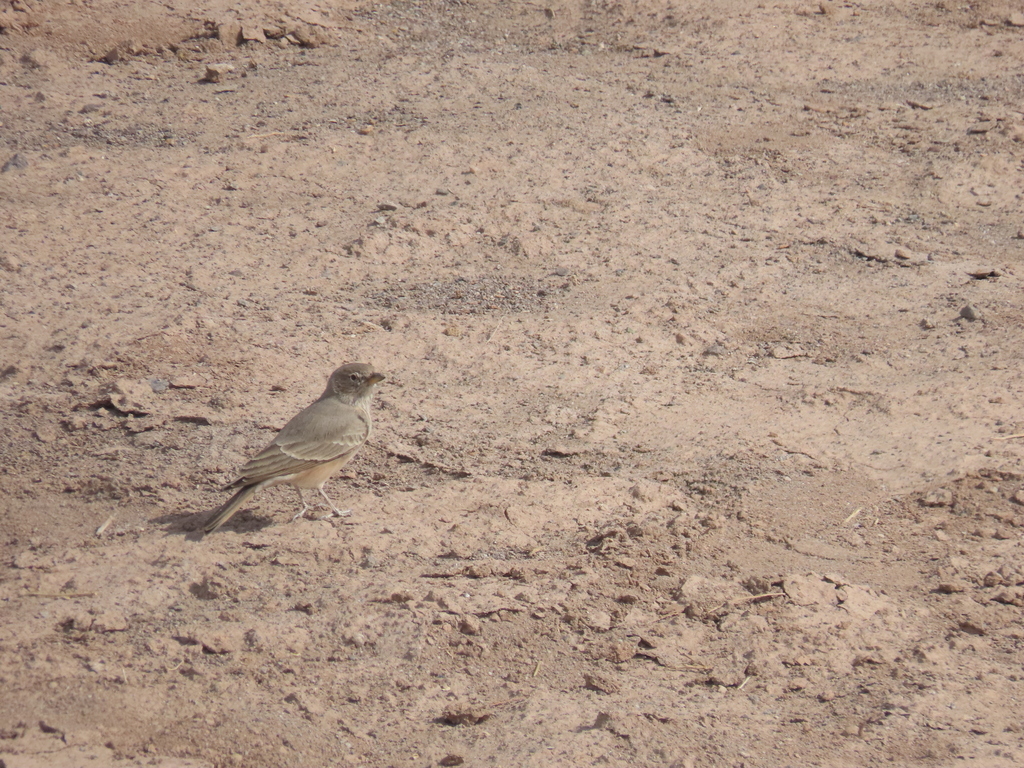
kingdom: Animalia
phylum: Chordata
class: Aves
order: Passeriformes
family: Alaudidae
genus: Ammomanes
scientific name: Ammomanes deserti
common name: Desert lark
